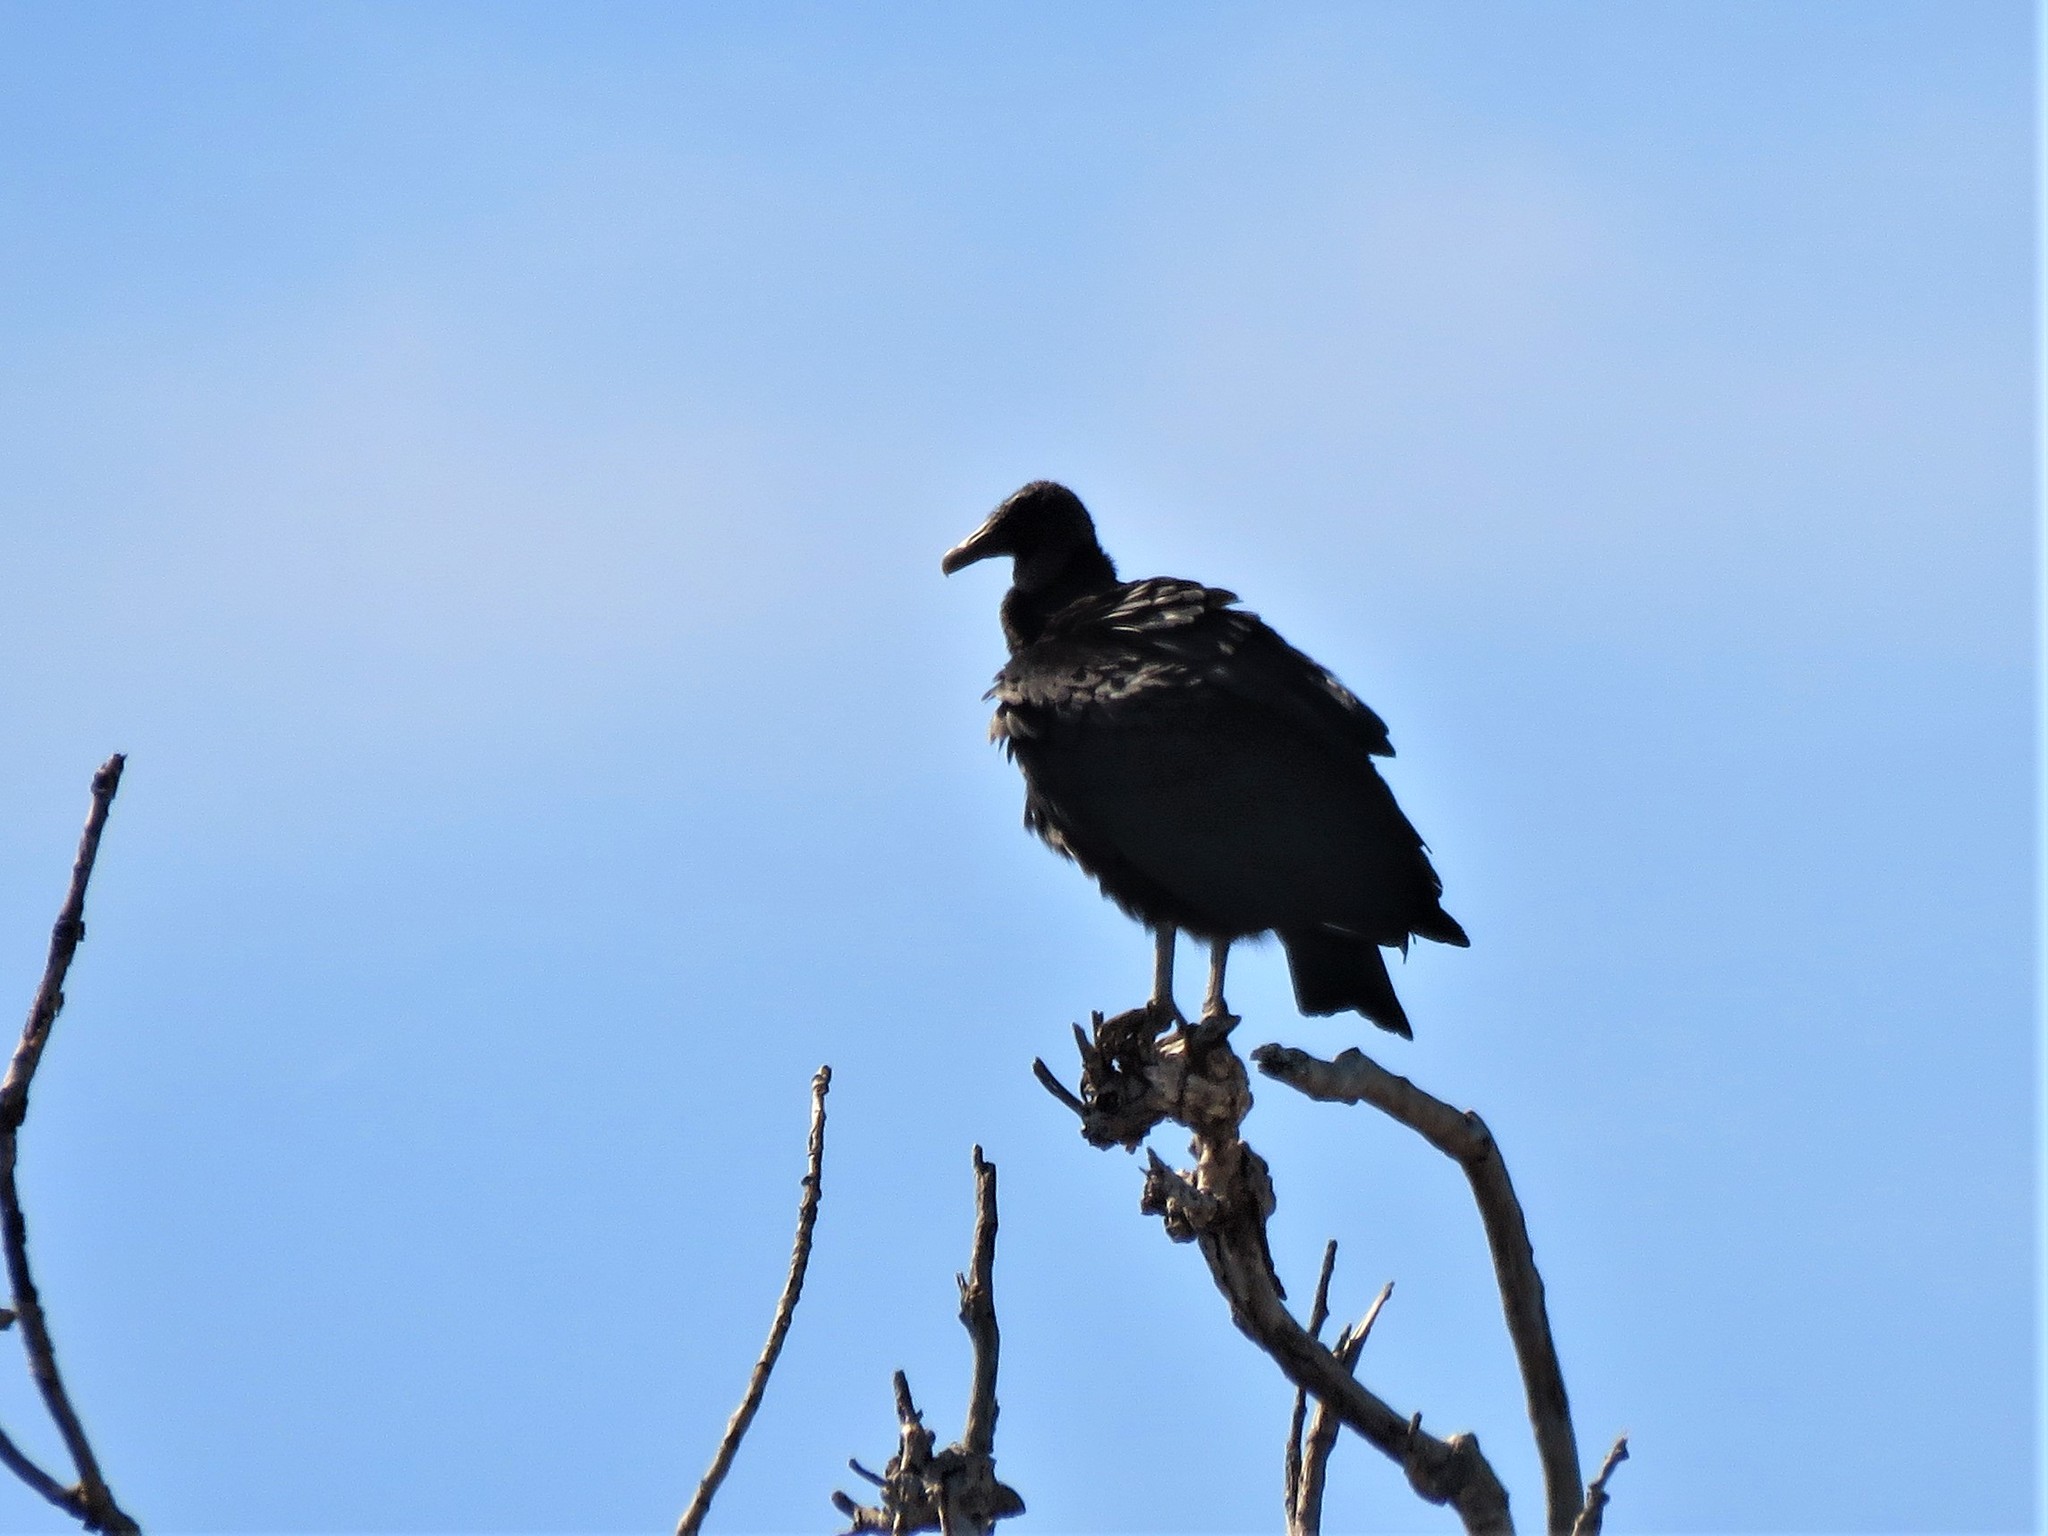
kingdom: Animalia
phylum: Chordata
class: Aves
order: Accipitriformes
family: Cathartidae
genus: Coragyps
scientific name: Coragyps atratus
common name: Black vulture
